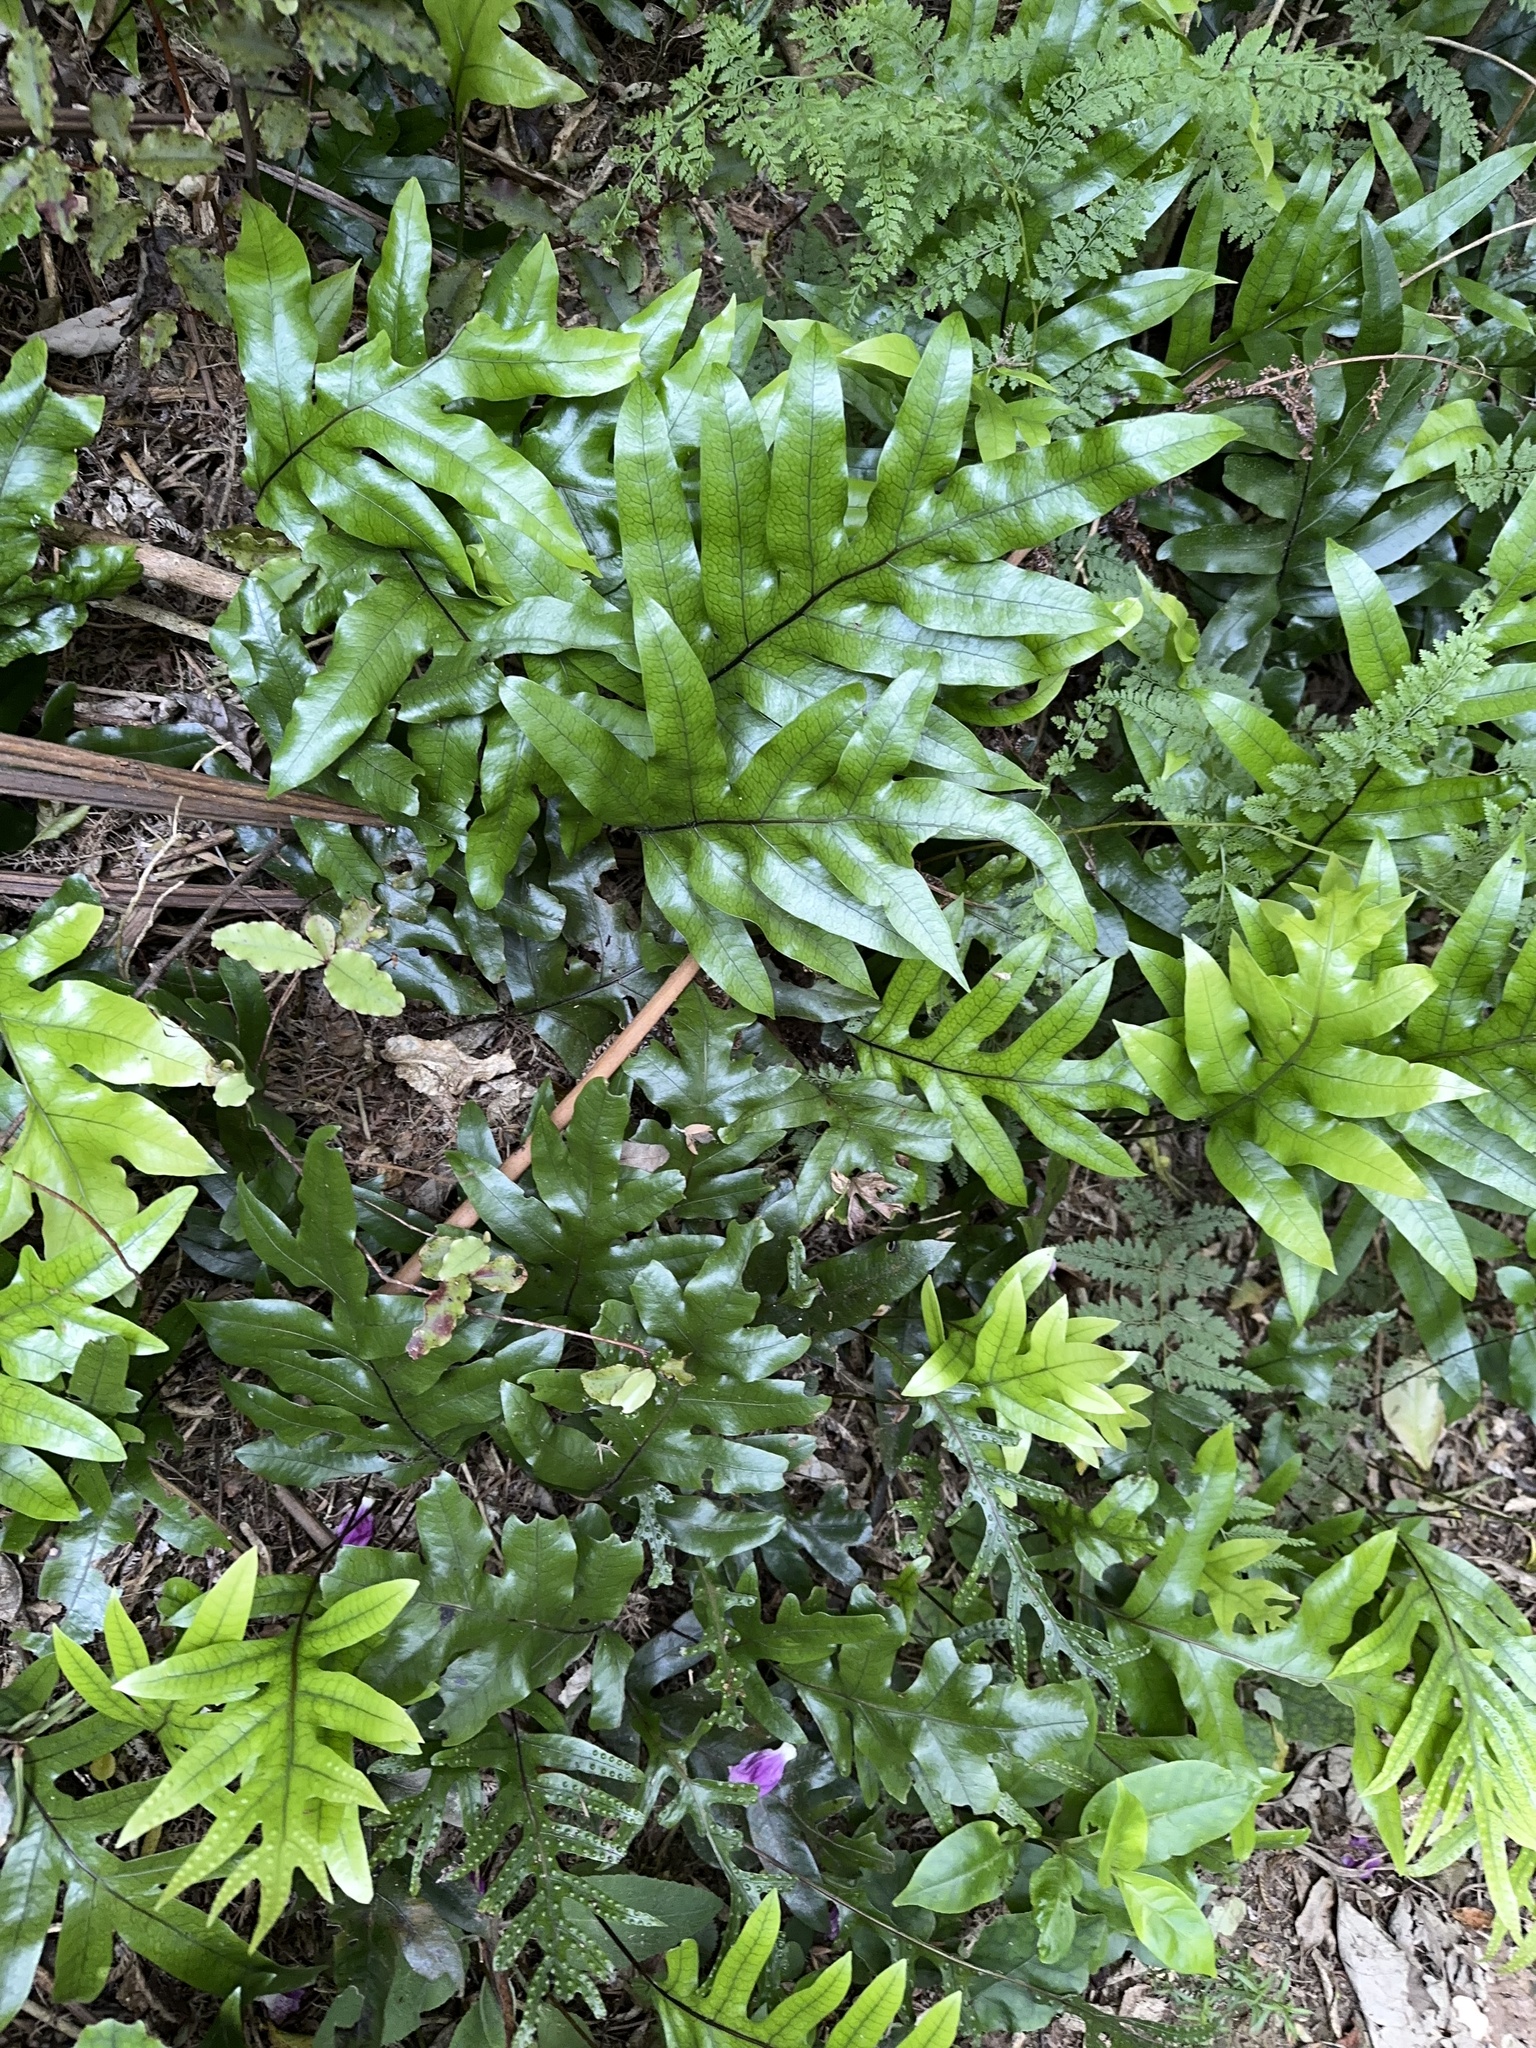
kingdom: Plantae
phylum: Tracheophyta
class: Polypodiopsida
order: Polypodiales
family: Polypodiaceae
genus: Lecanopteris
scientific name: Lecanopteris pustulata
